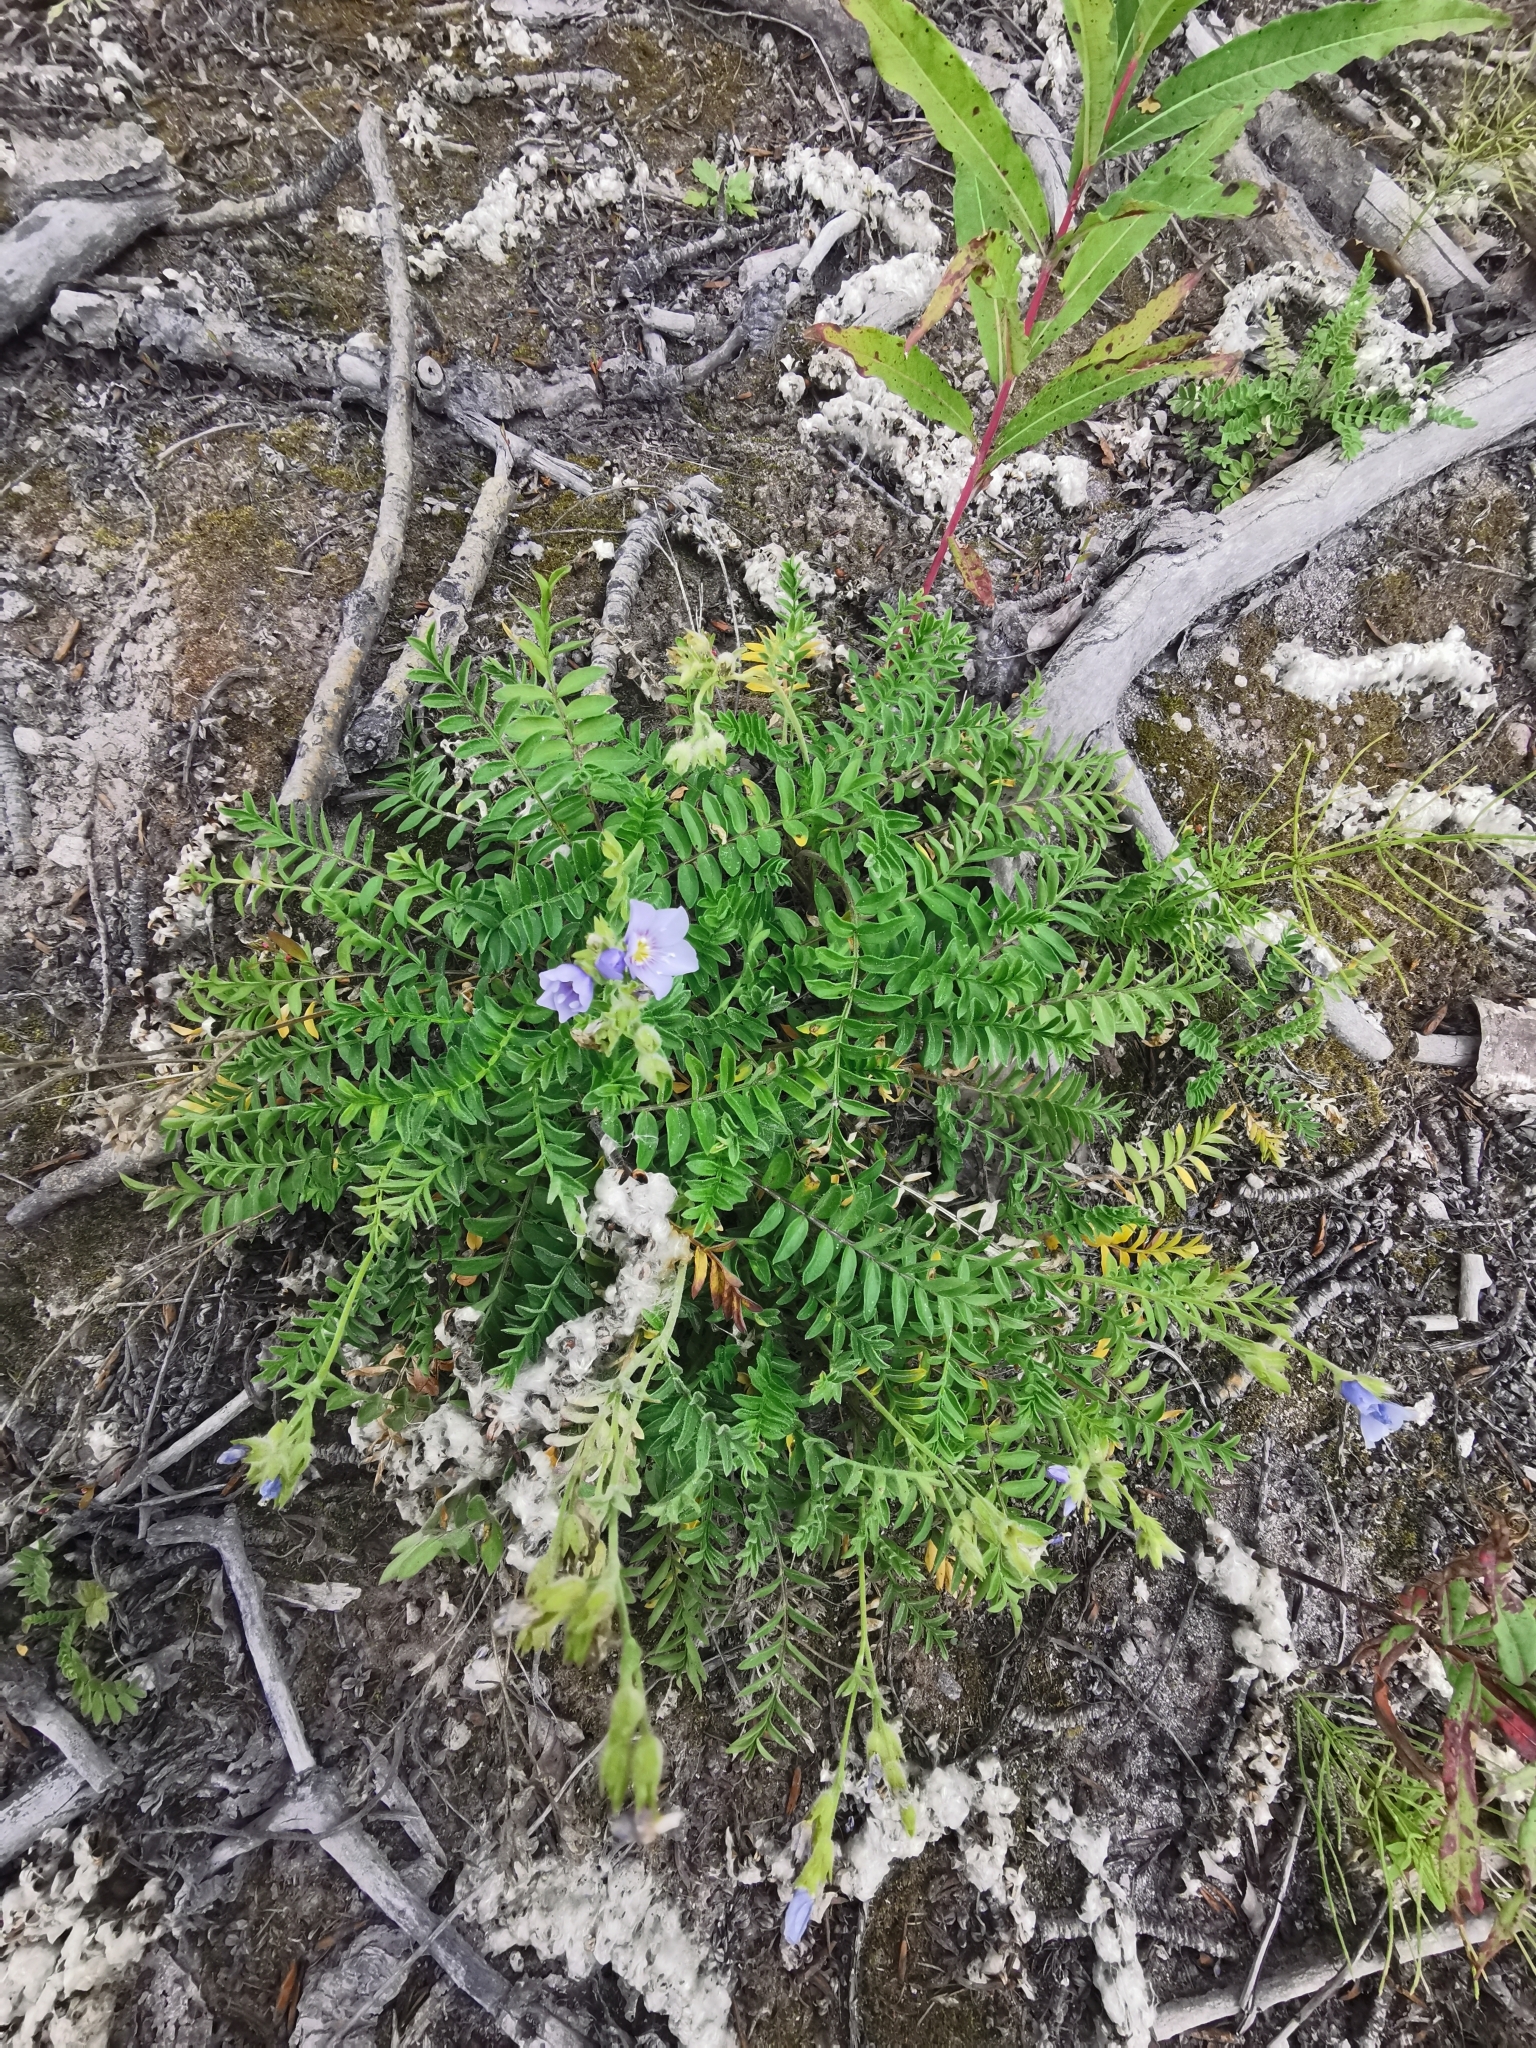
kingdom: Plantae
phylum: Tracheophyta
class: Magnoliopsida
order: Ericales
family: Polemoniaceae
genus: Polemonium
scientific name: Polemonium boreale
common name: Boreal jacob's-ladder
